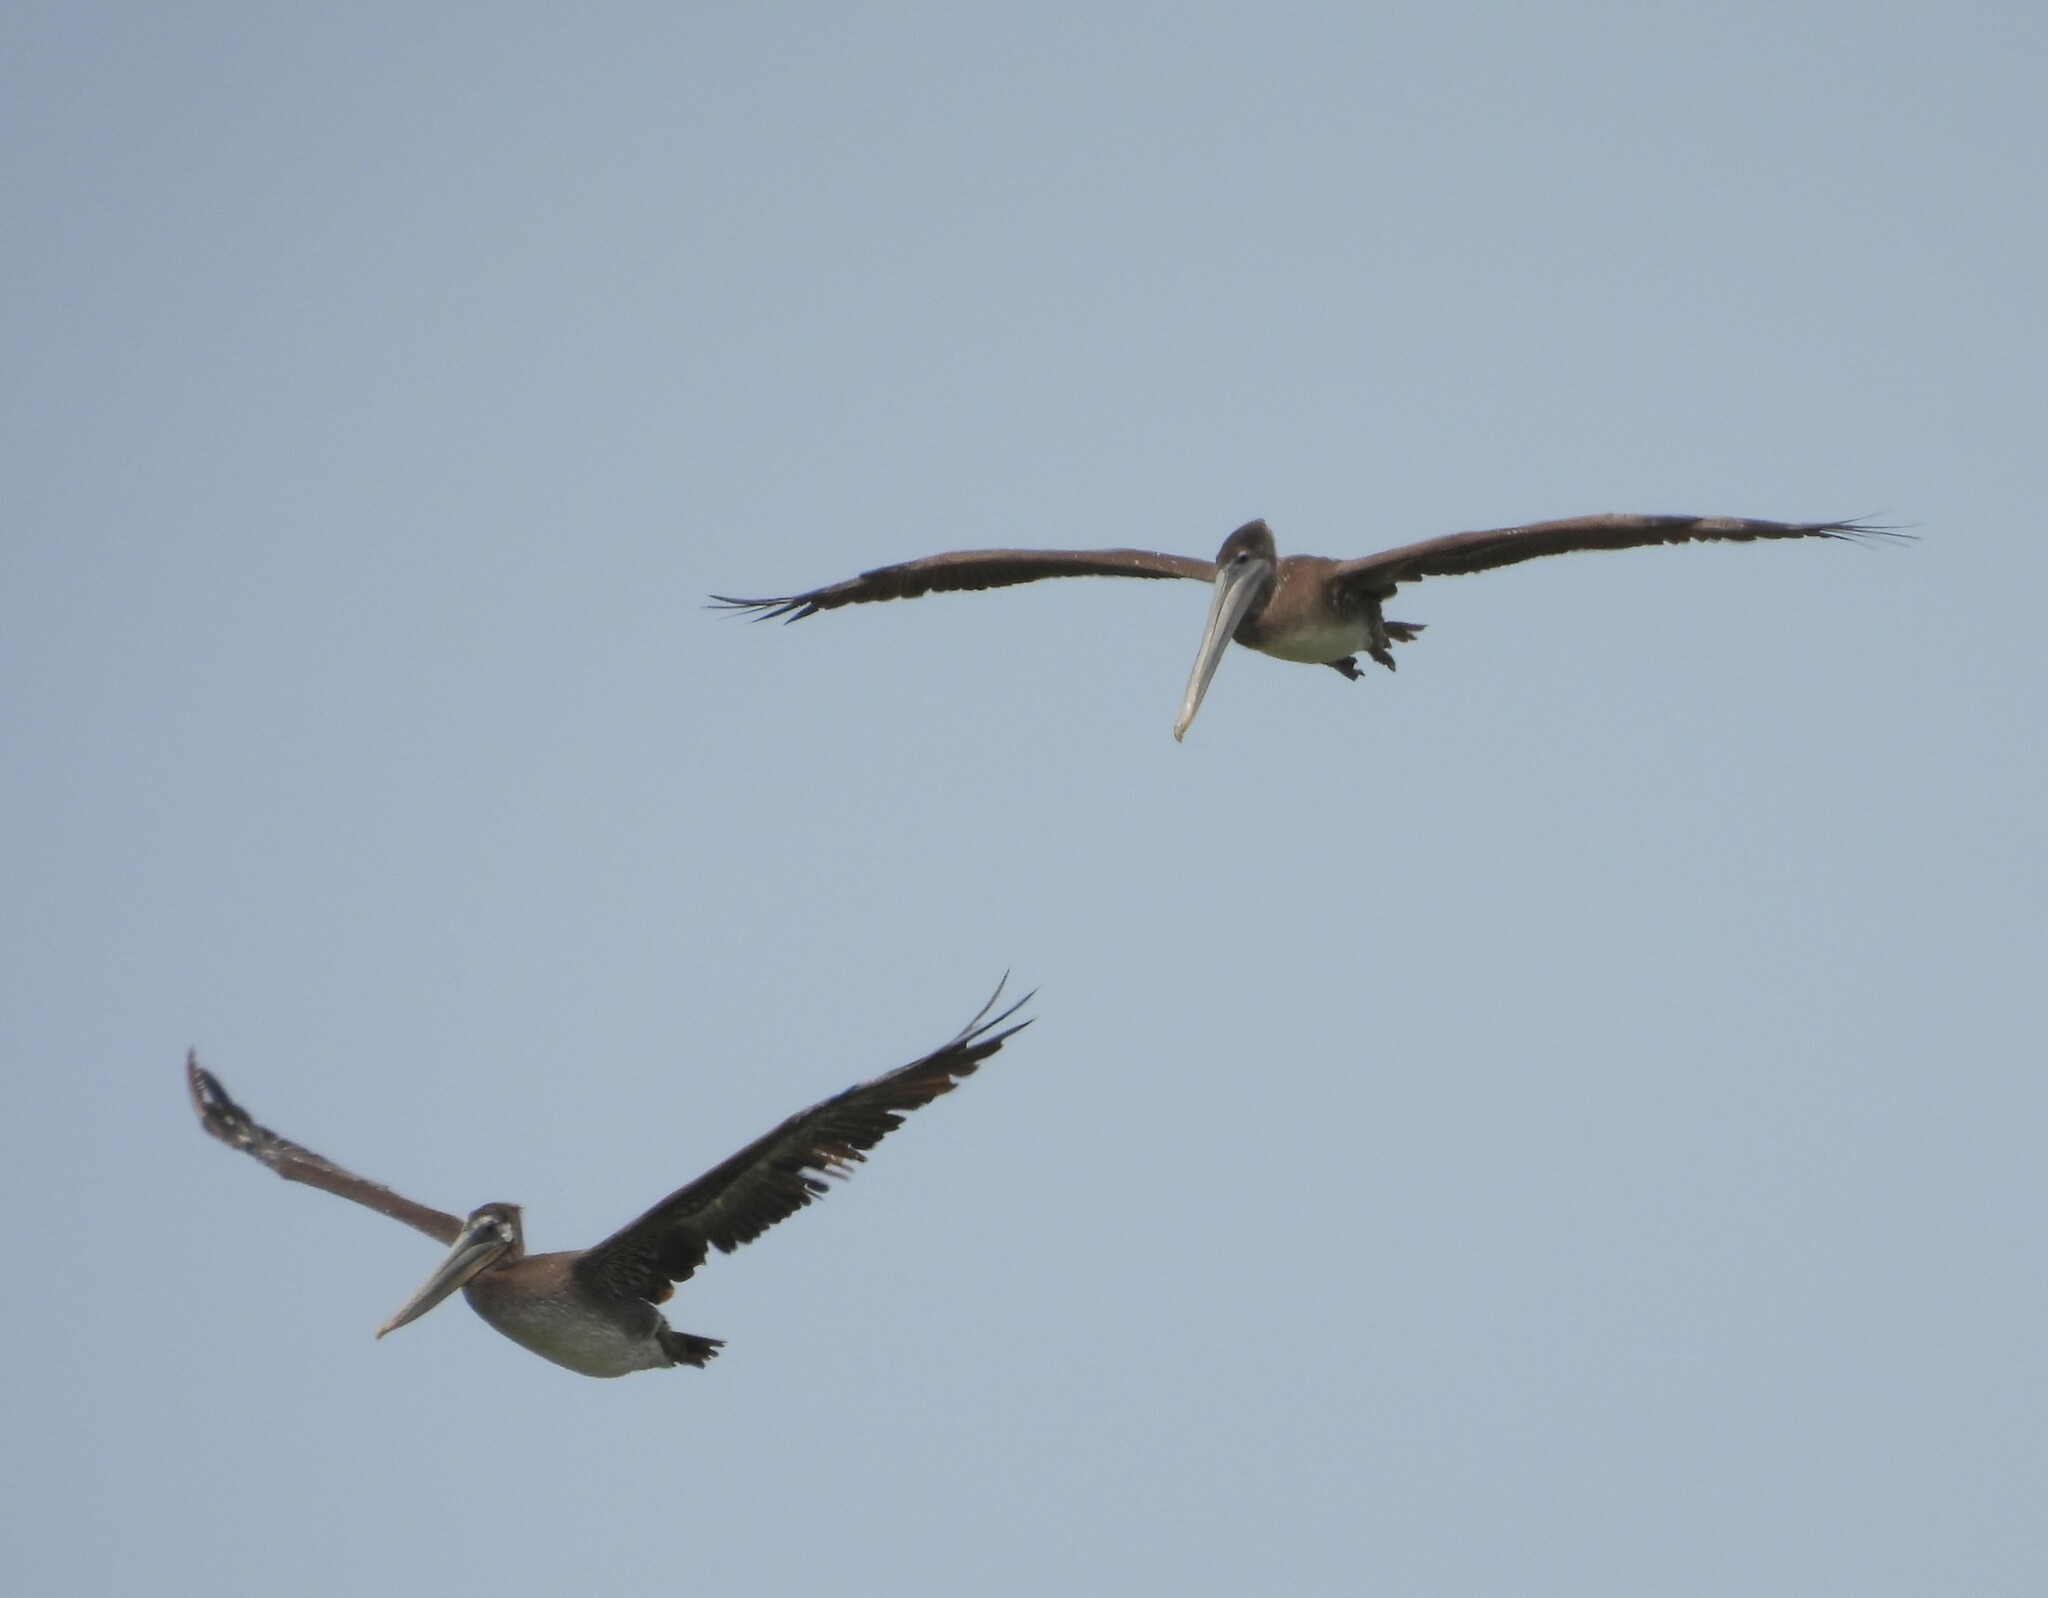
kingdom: Animalia
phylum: Chordata
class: Aves
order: Pelecaniformes
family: Pelecanidae
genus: Pelecanus
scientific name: Pelecanus occidentalis
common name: Brown pelican
